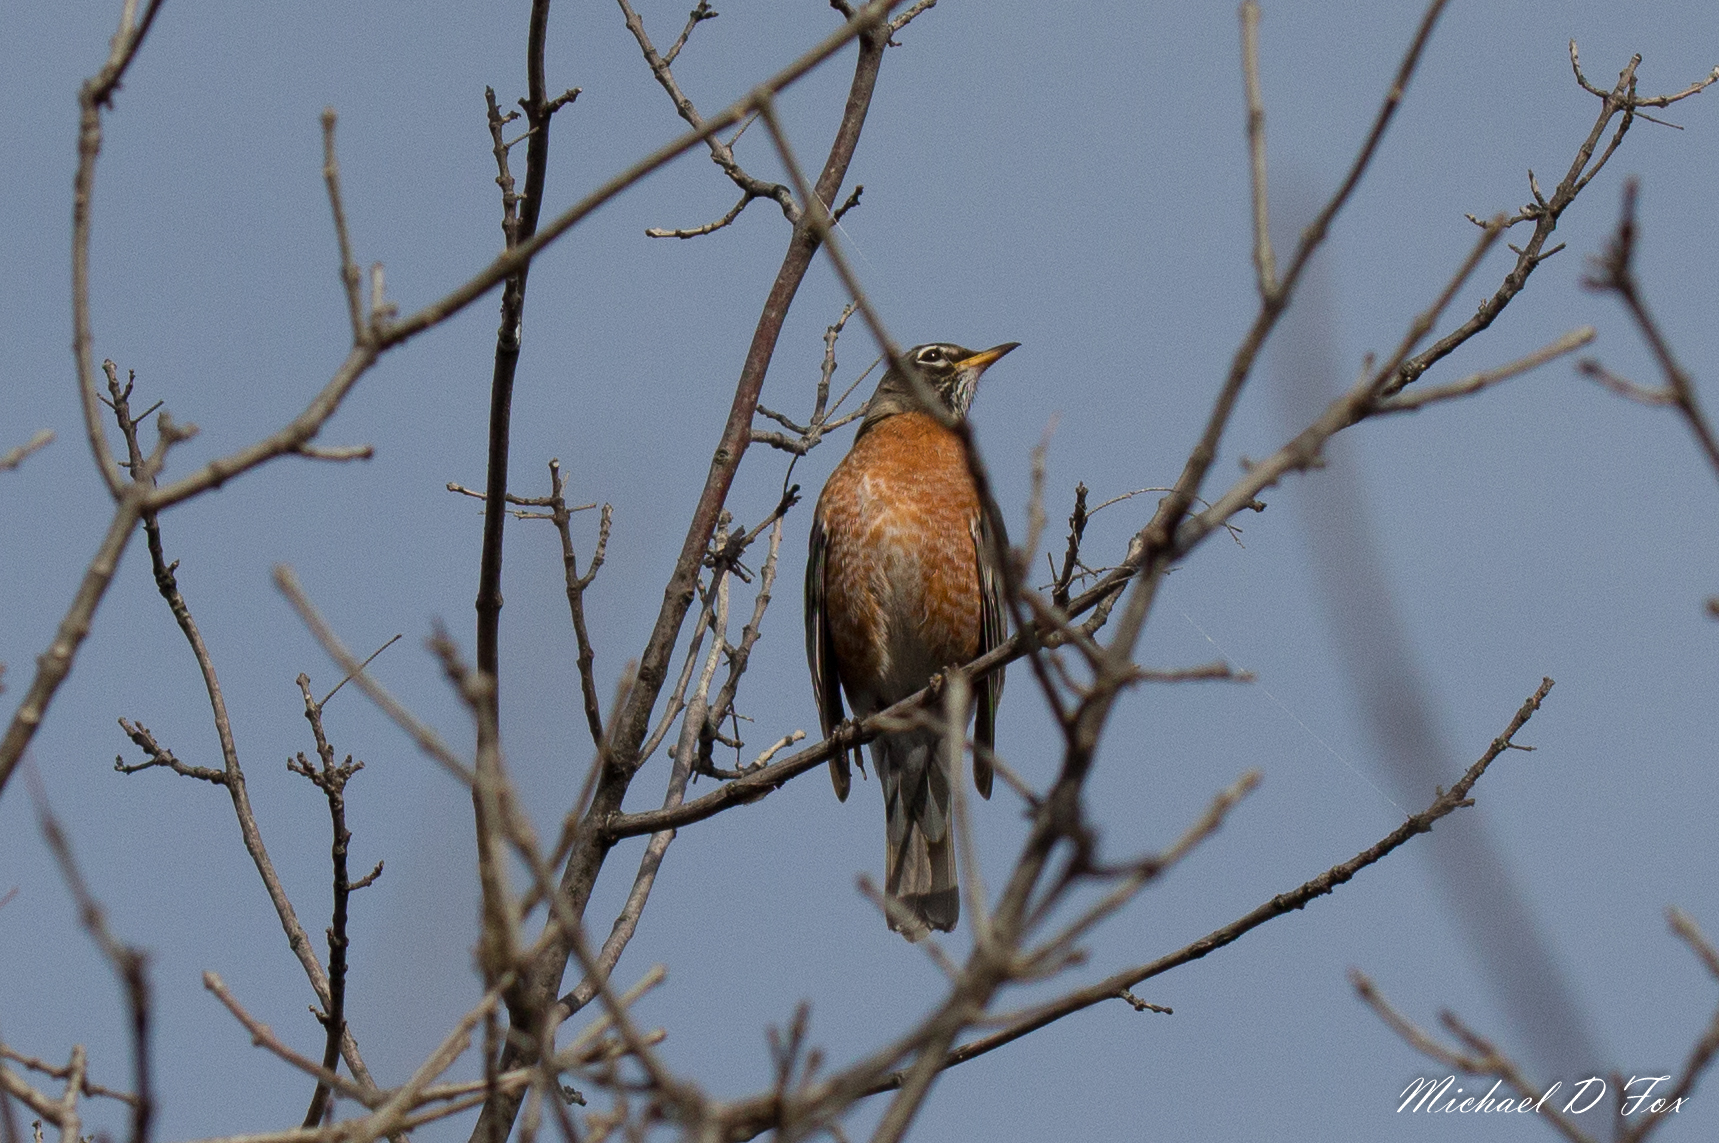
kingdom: Animalia
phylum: Chordata
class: Aves
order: Passeriformes
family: Turdidae
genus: Turdus
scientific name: Turdus migratorius
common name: American robin
